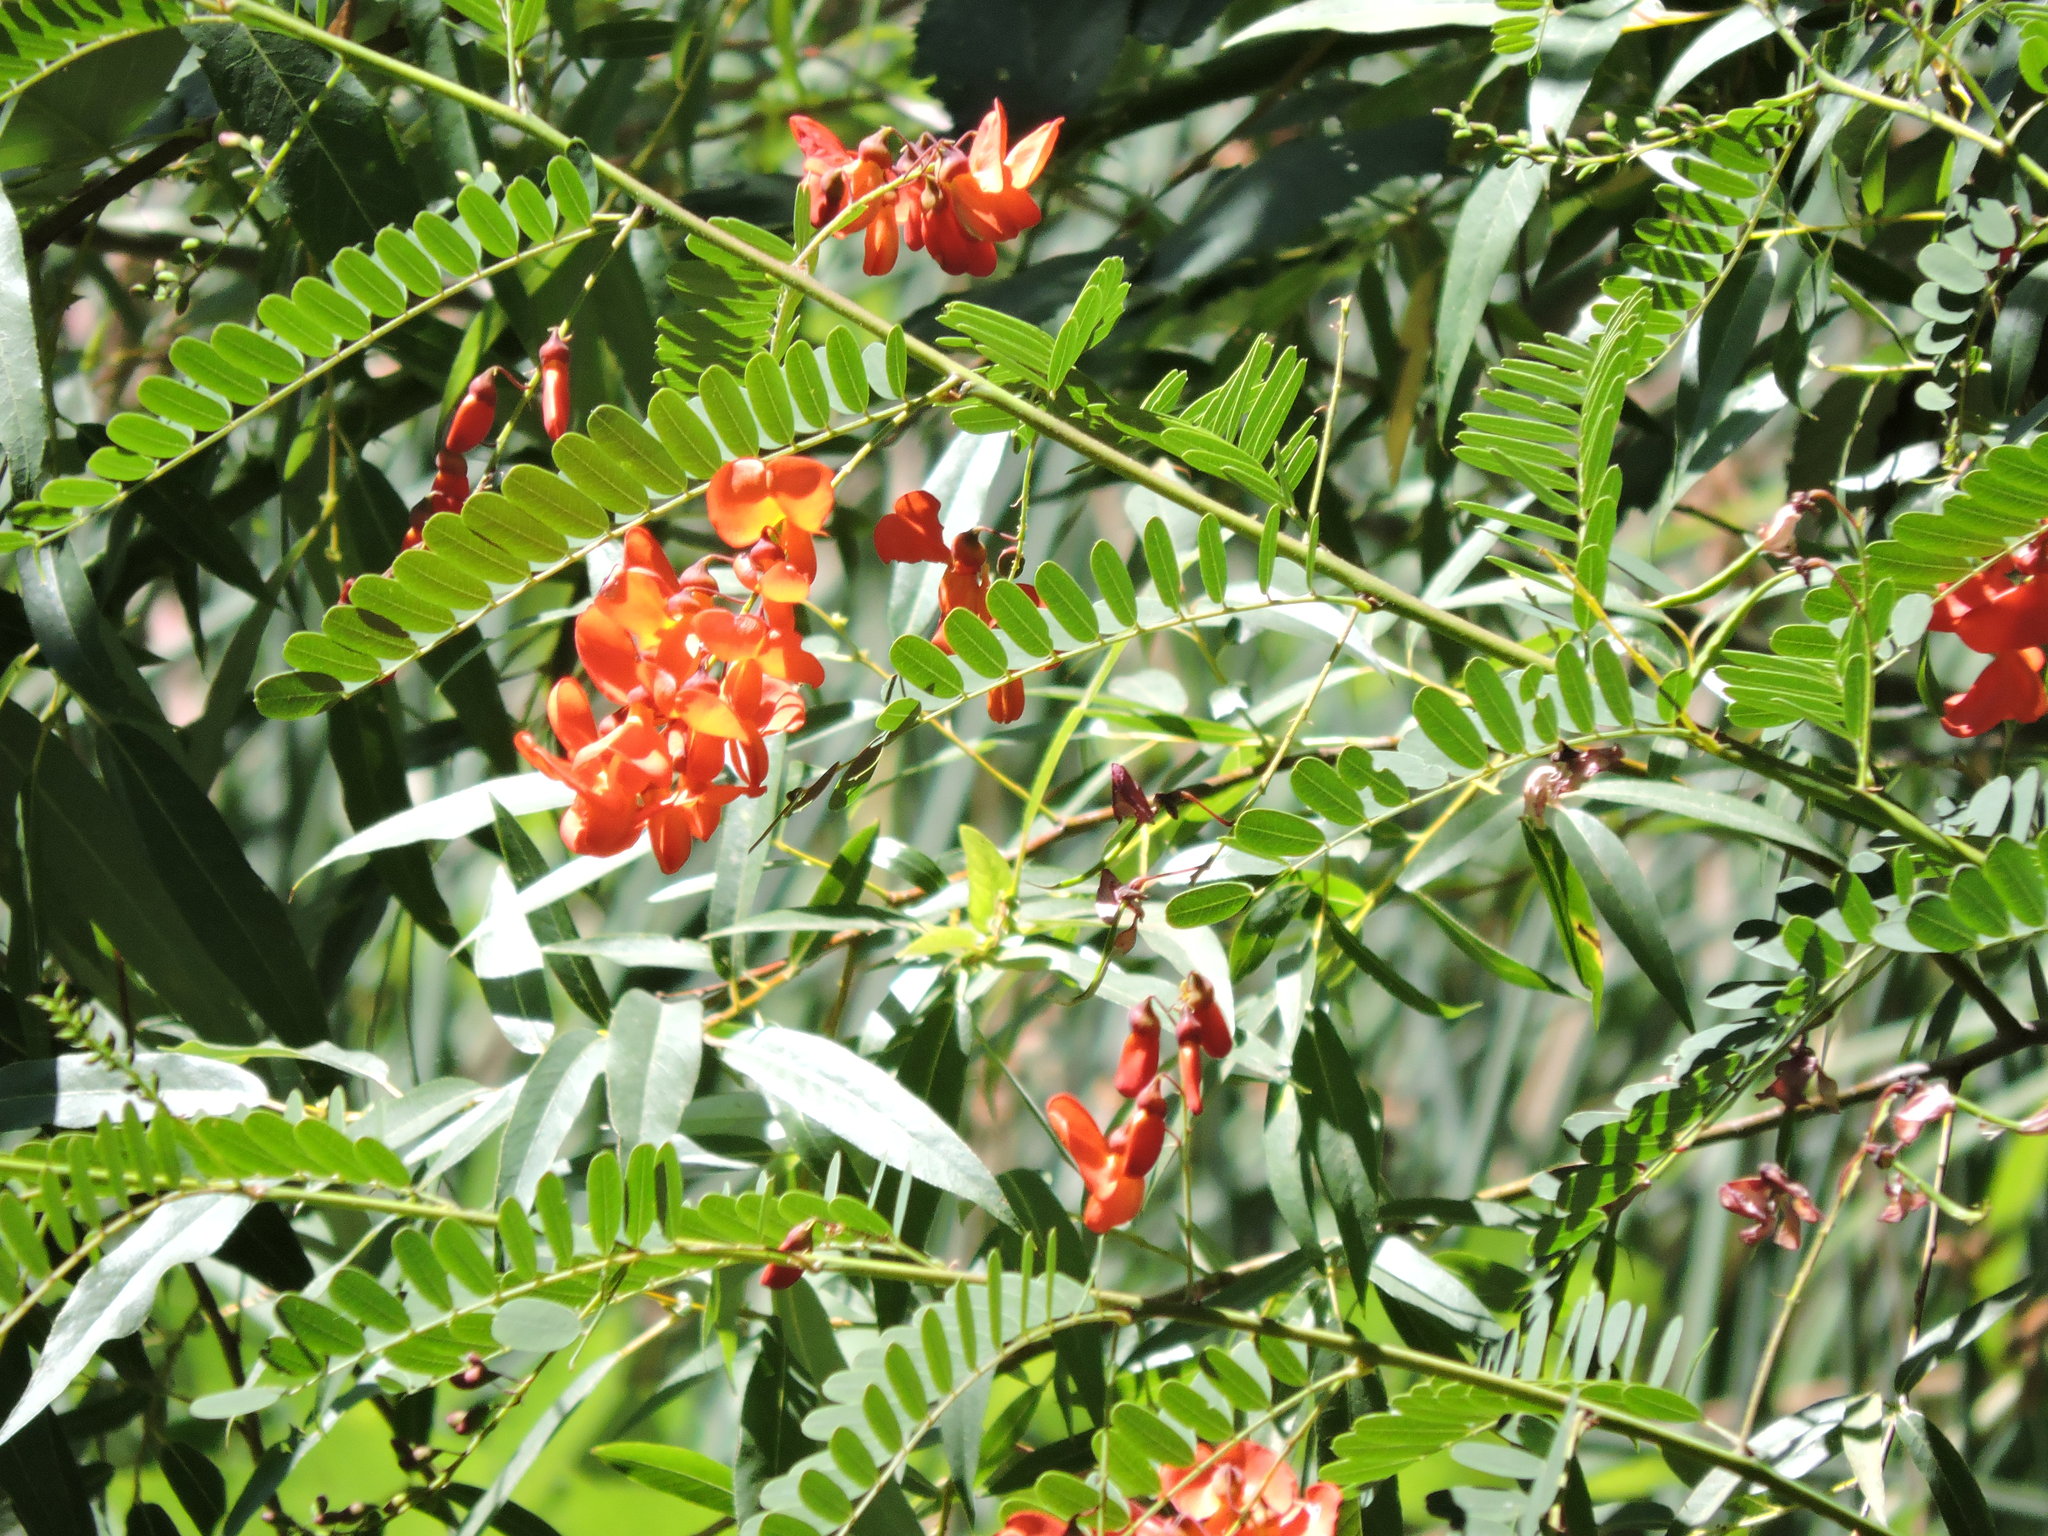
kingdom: Plantae
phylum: Tracheophyta
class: Magnoliopsida
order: Fabales
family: Fabaceae
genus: Sesbania
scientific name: Sesbania punicea
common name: Rattlebox
